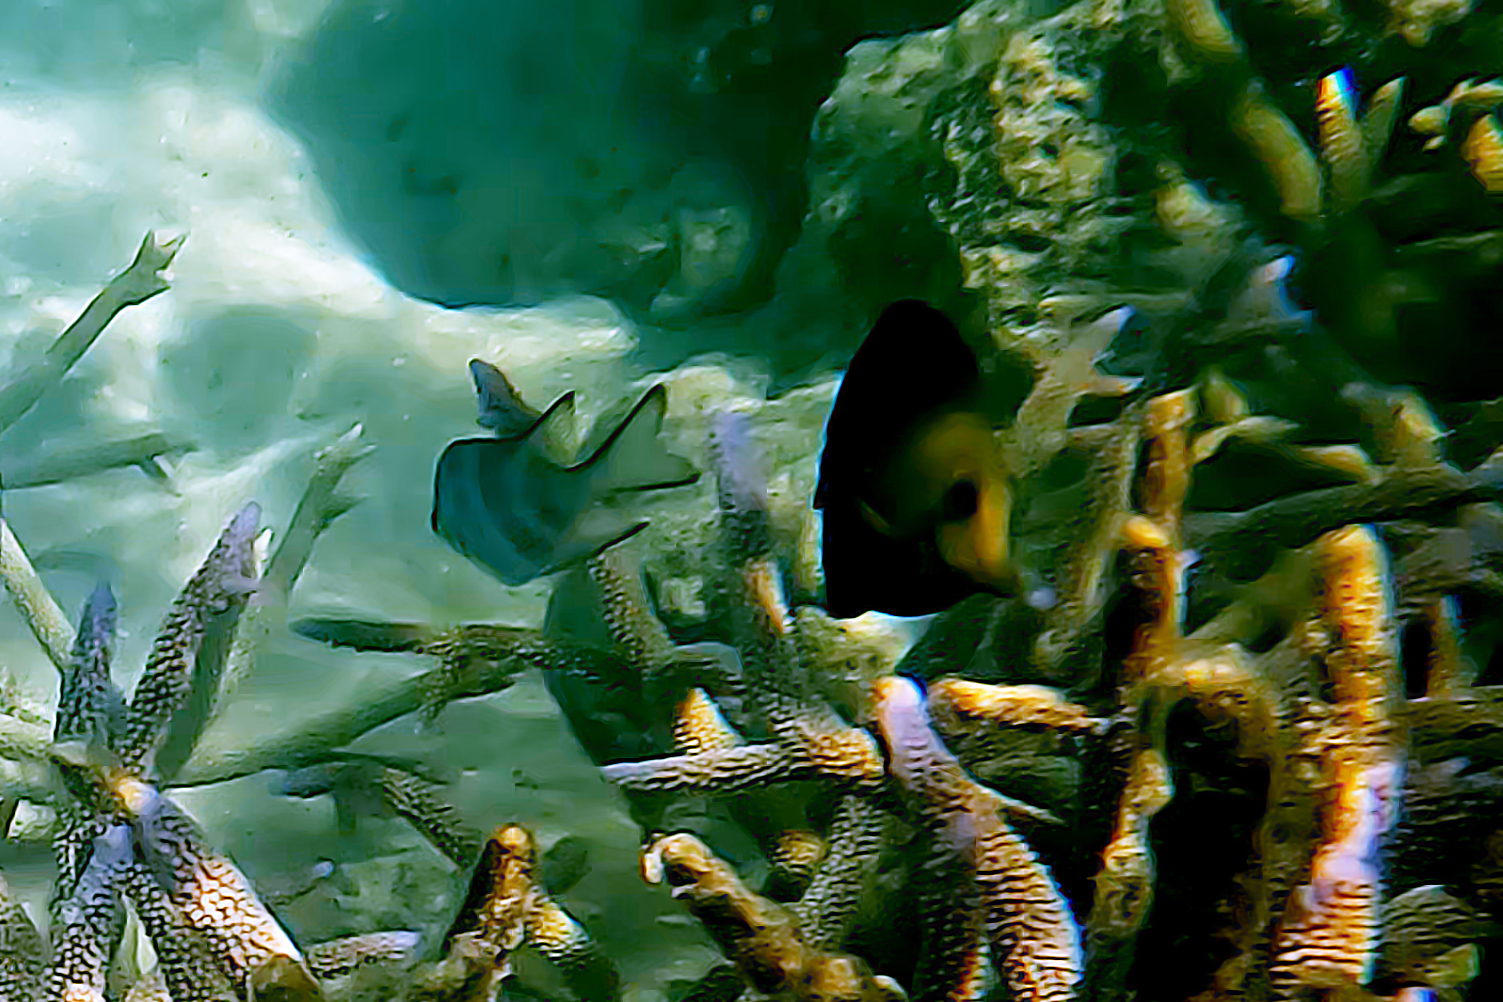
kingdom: Animalia
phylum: Chordata
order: Perciformes
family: Acanthuridae
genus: Zebrasoma
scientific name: Zebrasoma scopas
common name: Twotone tang
